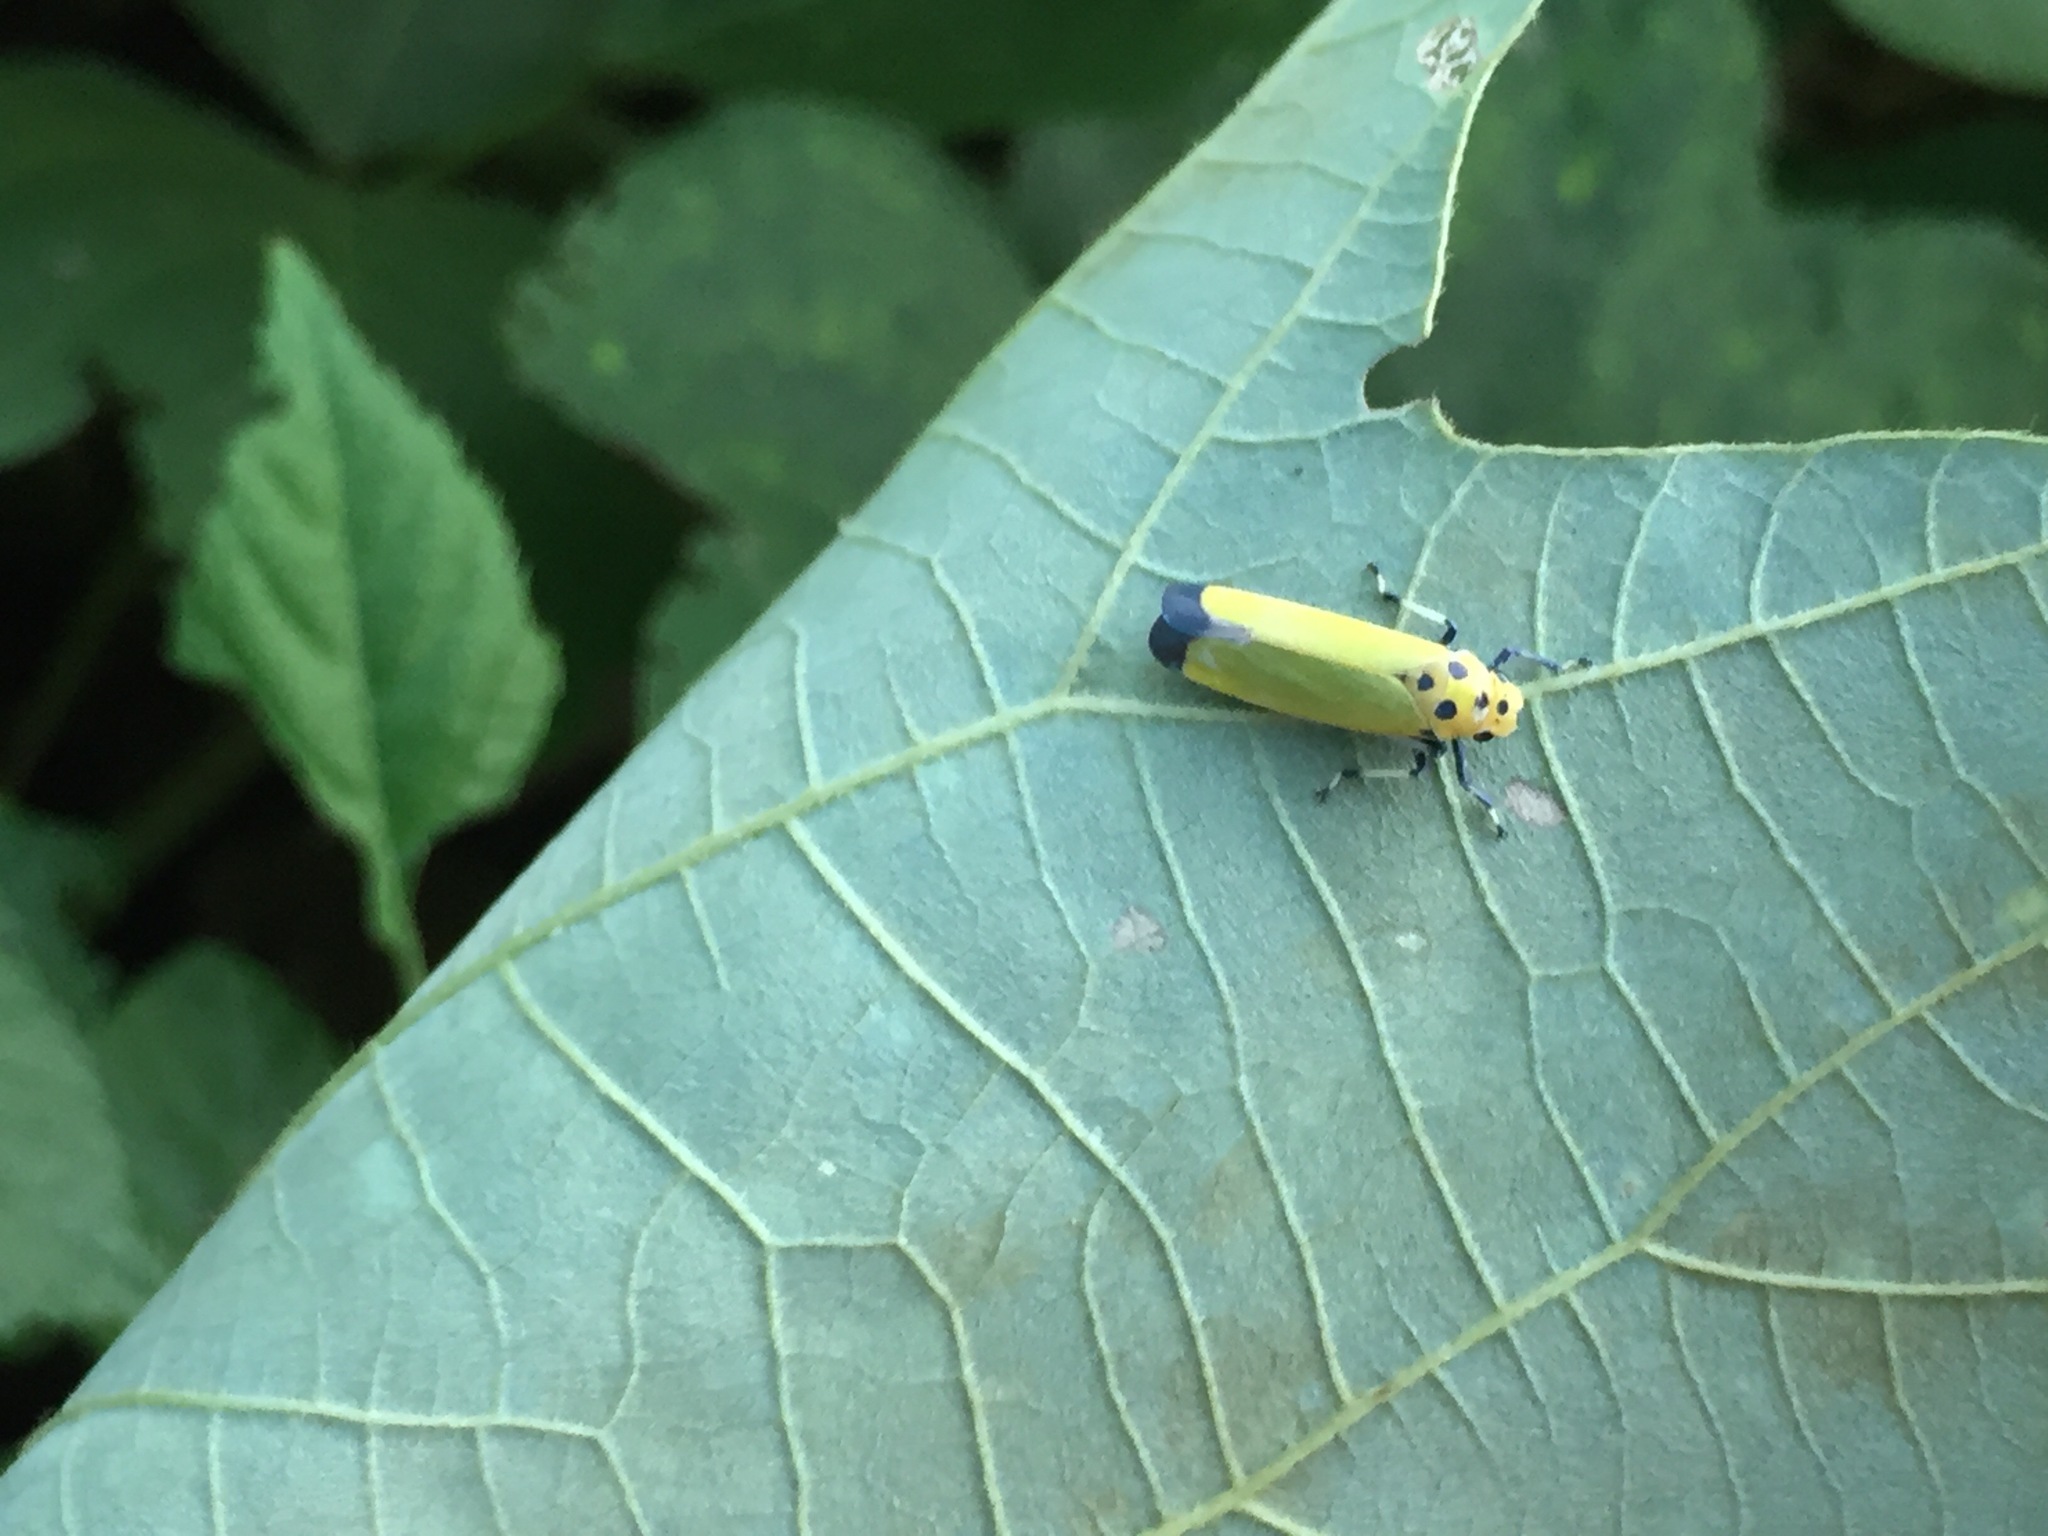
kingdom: Animalia
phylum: Arthropoda
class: Insecta
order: Hemiptera
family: Cicadellidae
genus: Bothrogonia
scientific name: Bothrogonia ferruginea
